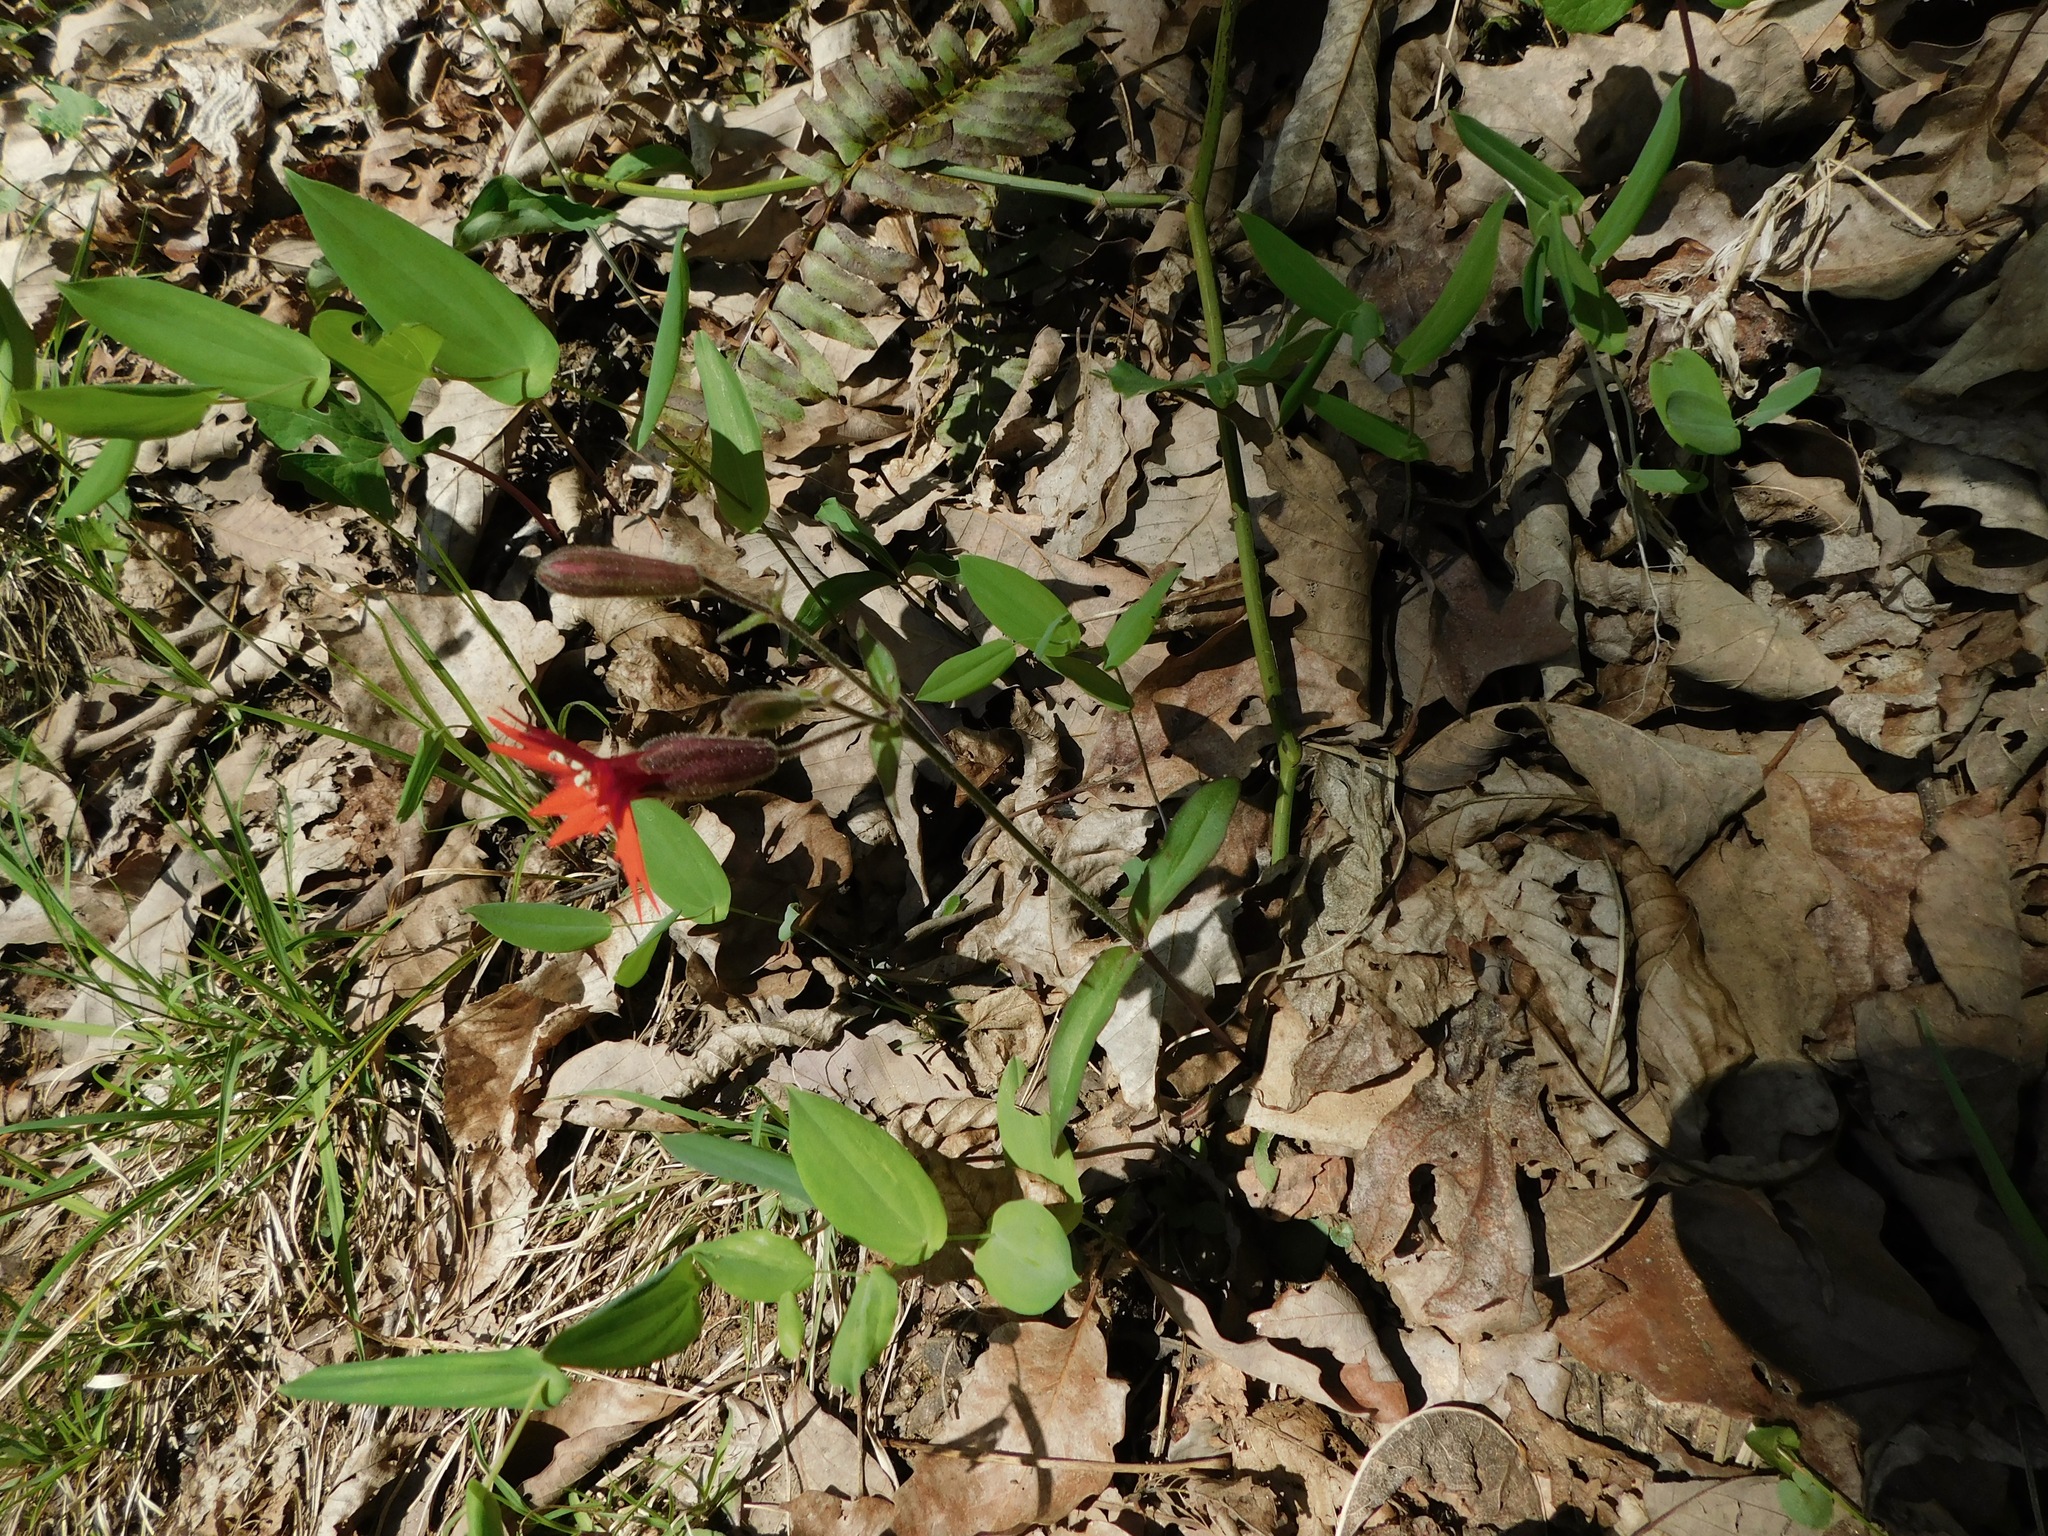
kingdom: Plantae
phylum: Tracheophyta
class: Magnoliopsida
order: Caryophyllales
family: Caryophyllaceae
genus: Silene
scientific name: Silene virginica
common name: Fire-pink
